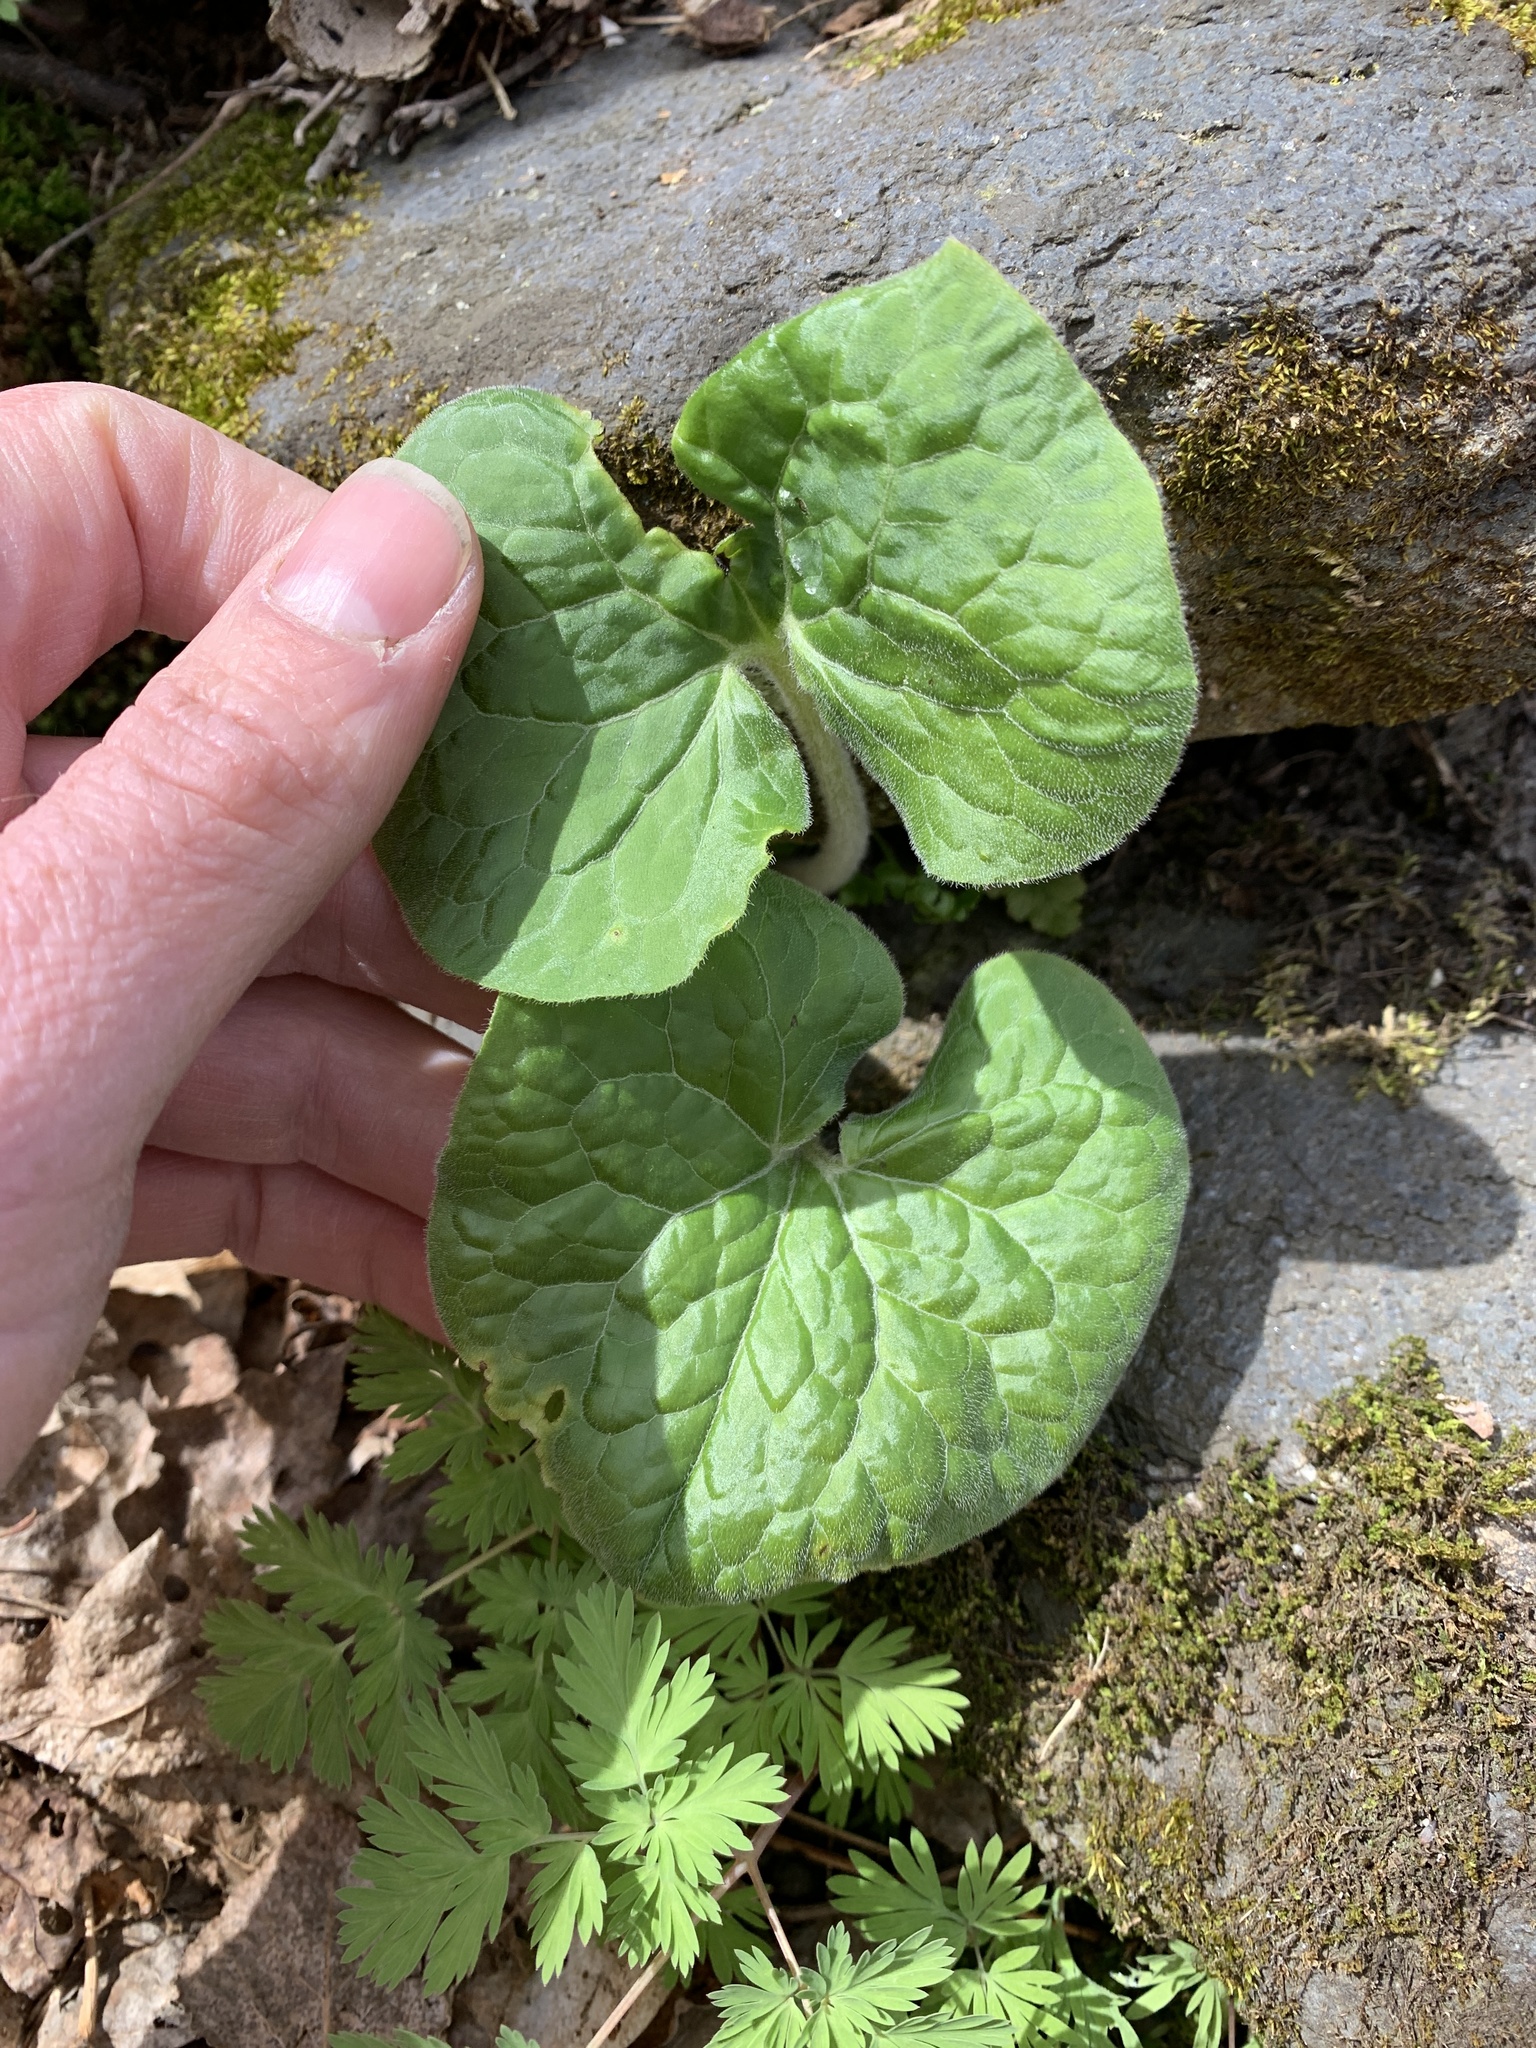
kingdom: Plantae
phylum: Tracheophyta
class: Magnoliopsida
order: Piperales
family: Aristolochiaceae
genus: Asarum
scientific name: Asarum canadense
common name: Wild ginger
